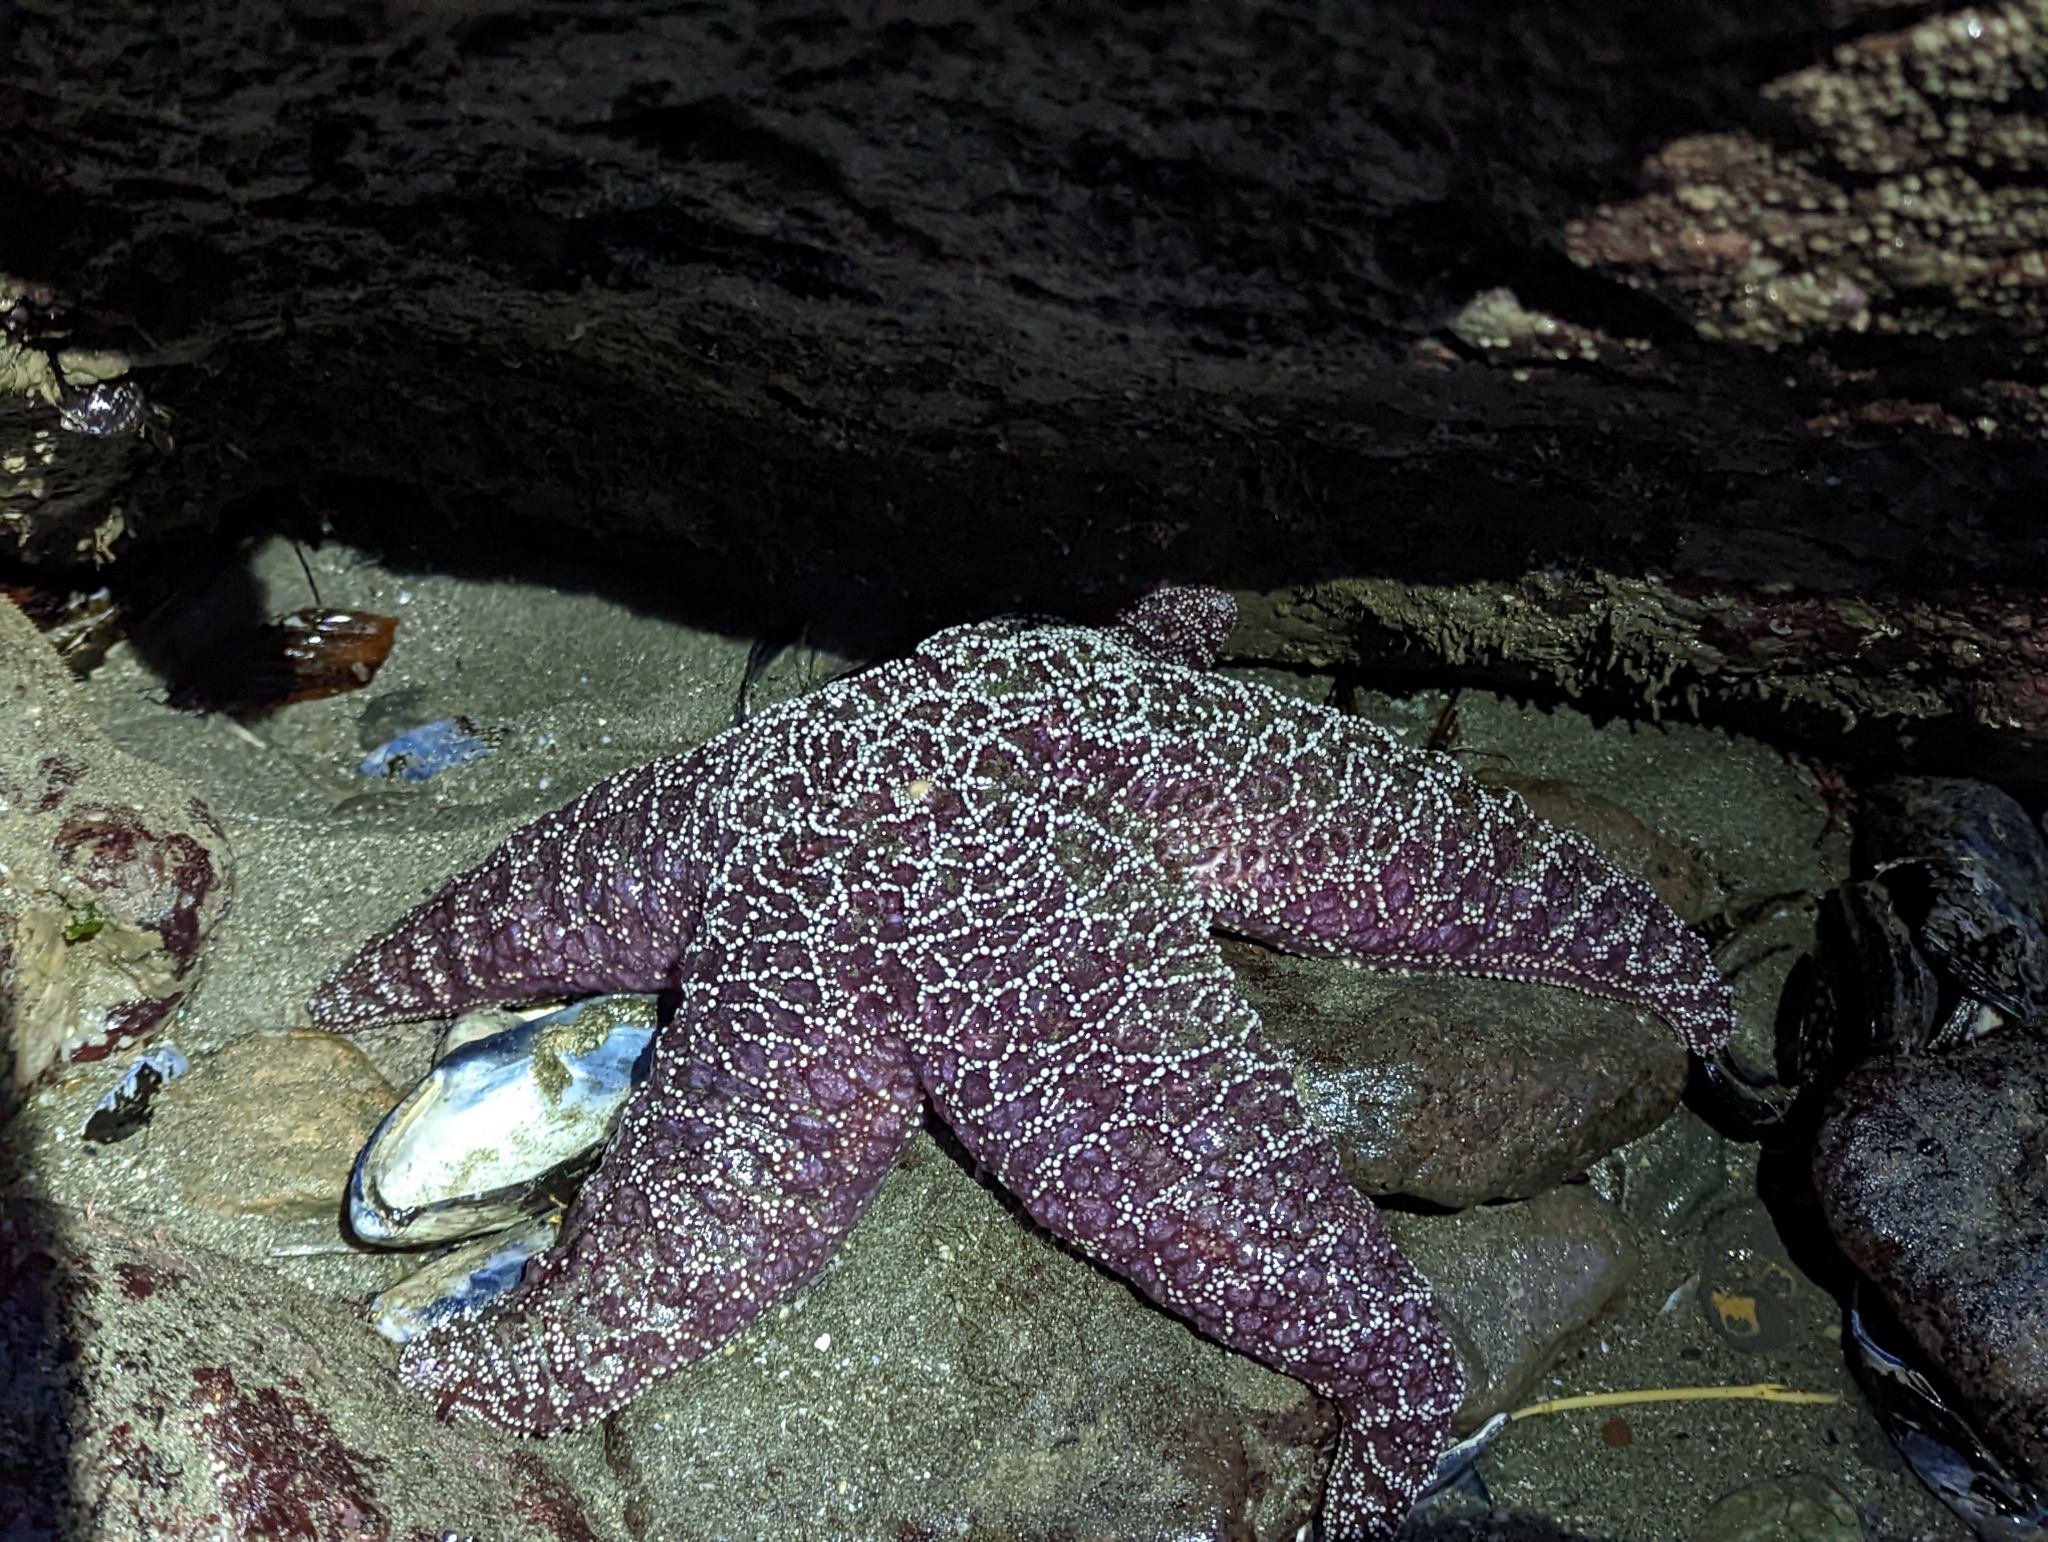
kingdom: Animalia
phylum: Echinodermata
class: Asteroidea
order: Forcipulatida
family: Asteriidae
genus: Pisaster
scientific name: Pisaster ochraceus
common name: Ochre stars
